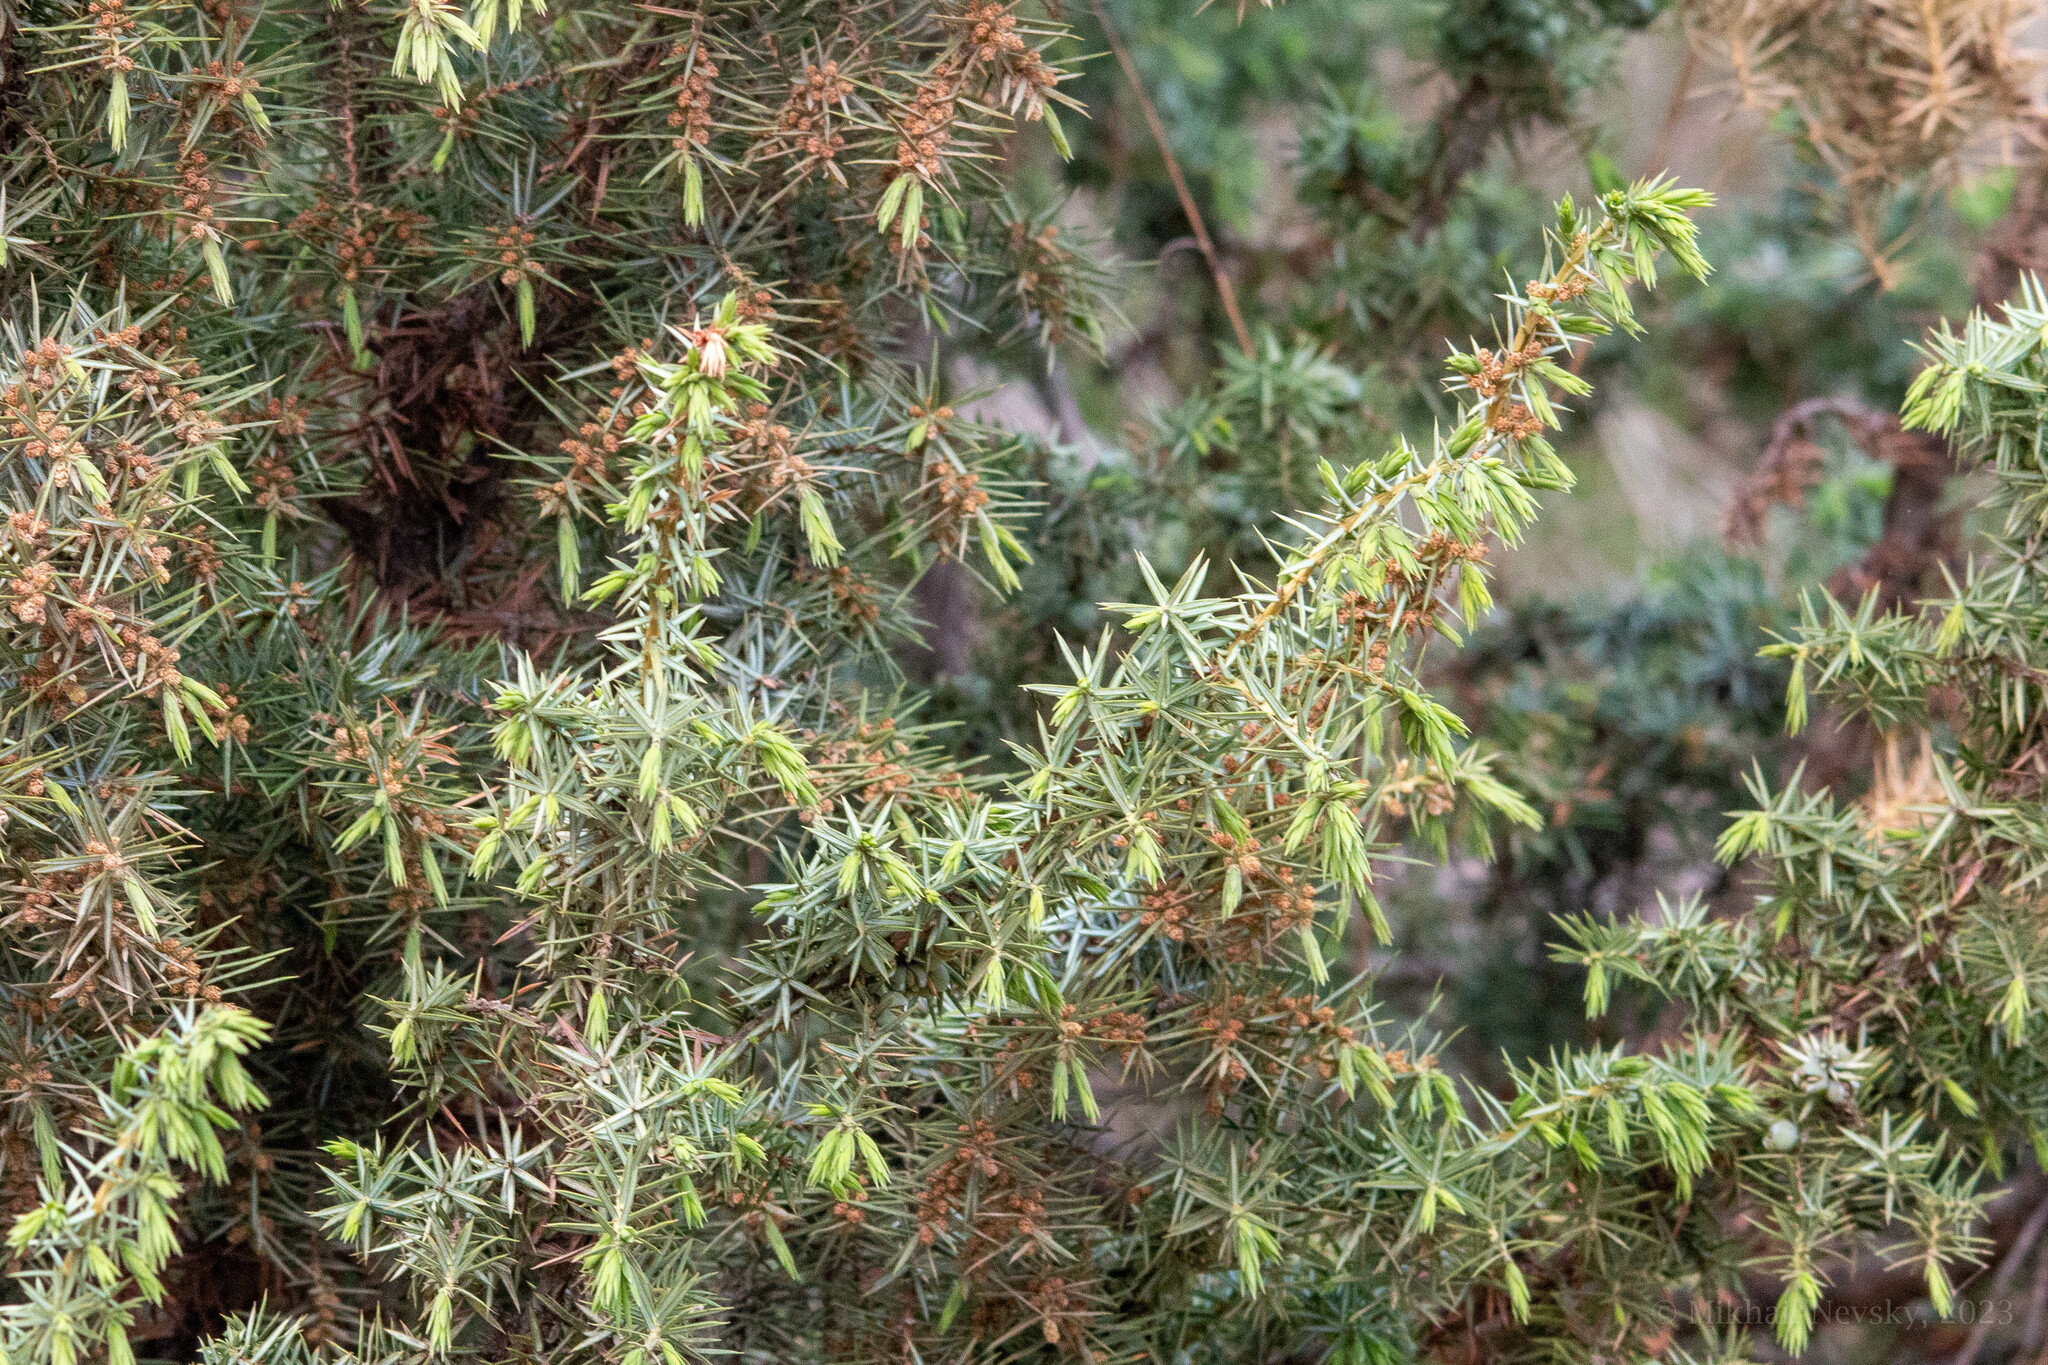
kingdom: Plantae
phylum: Tracheophyta
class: Pinopsida
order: Pinales
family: Cupressaceae
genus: Juniperus
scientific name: Juniperus communis
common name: Common juniper
